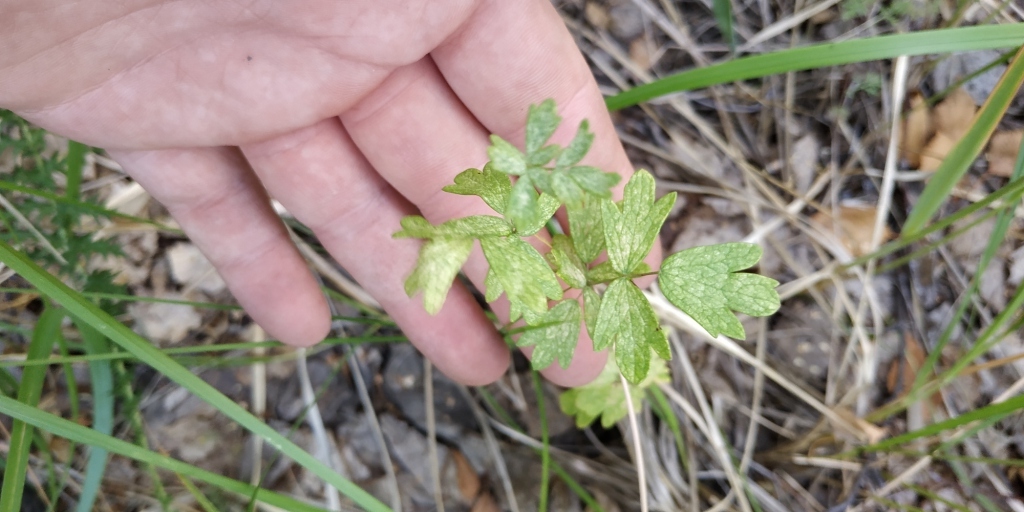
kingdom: Plantae
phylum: Tracheophyta
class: Magnoliopsida
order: Ranunculales
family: Ranunculaceae
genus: Thalictrum
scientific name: Thalictrum simplex
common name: Small meadow-rue
